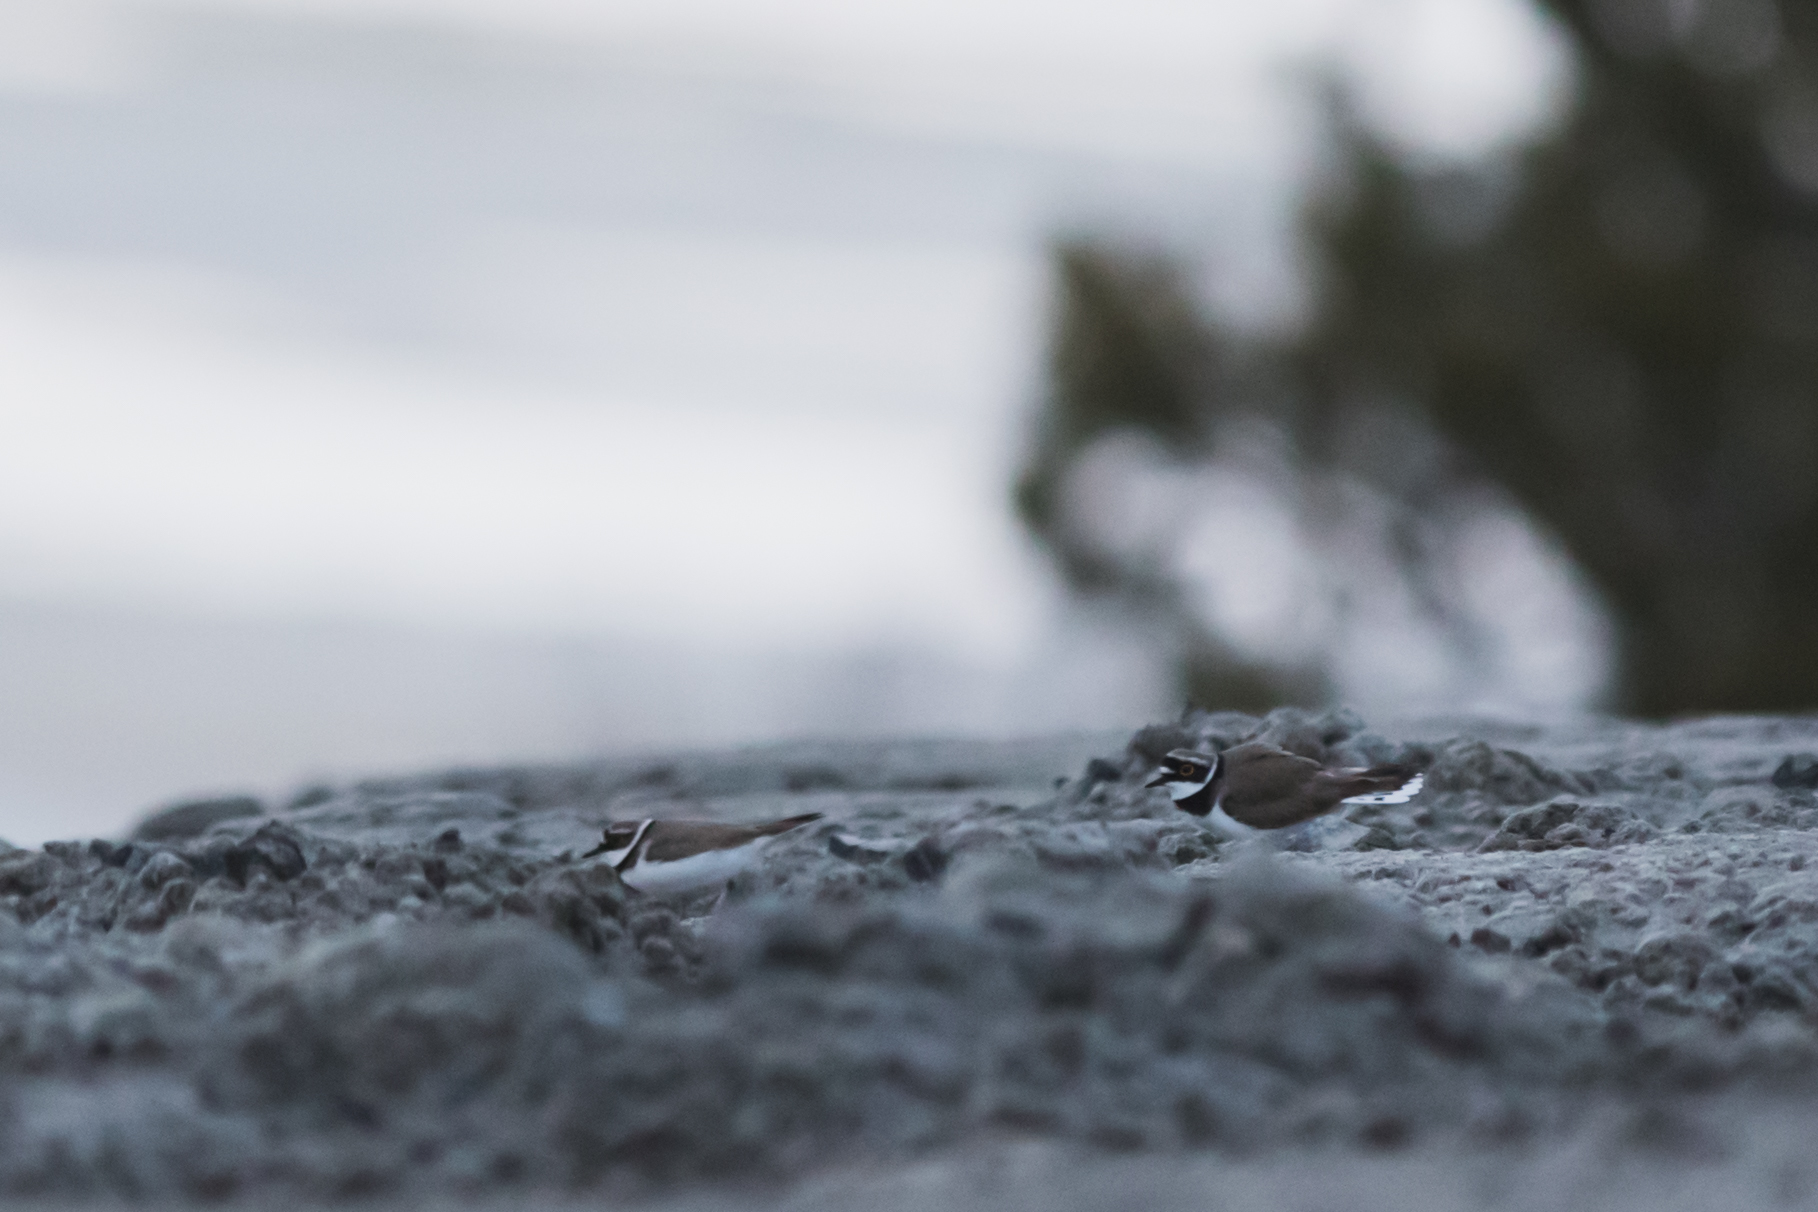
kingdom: Animalia
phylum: Chordata
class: Aves
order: Charadriiformes
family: Charadriidae
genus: Charadrius
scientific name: Charadrius dubius
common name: Little ringed plover
